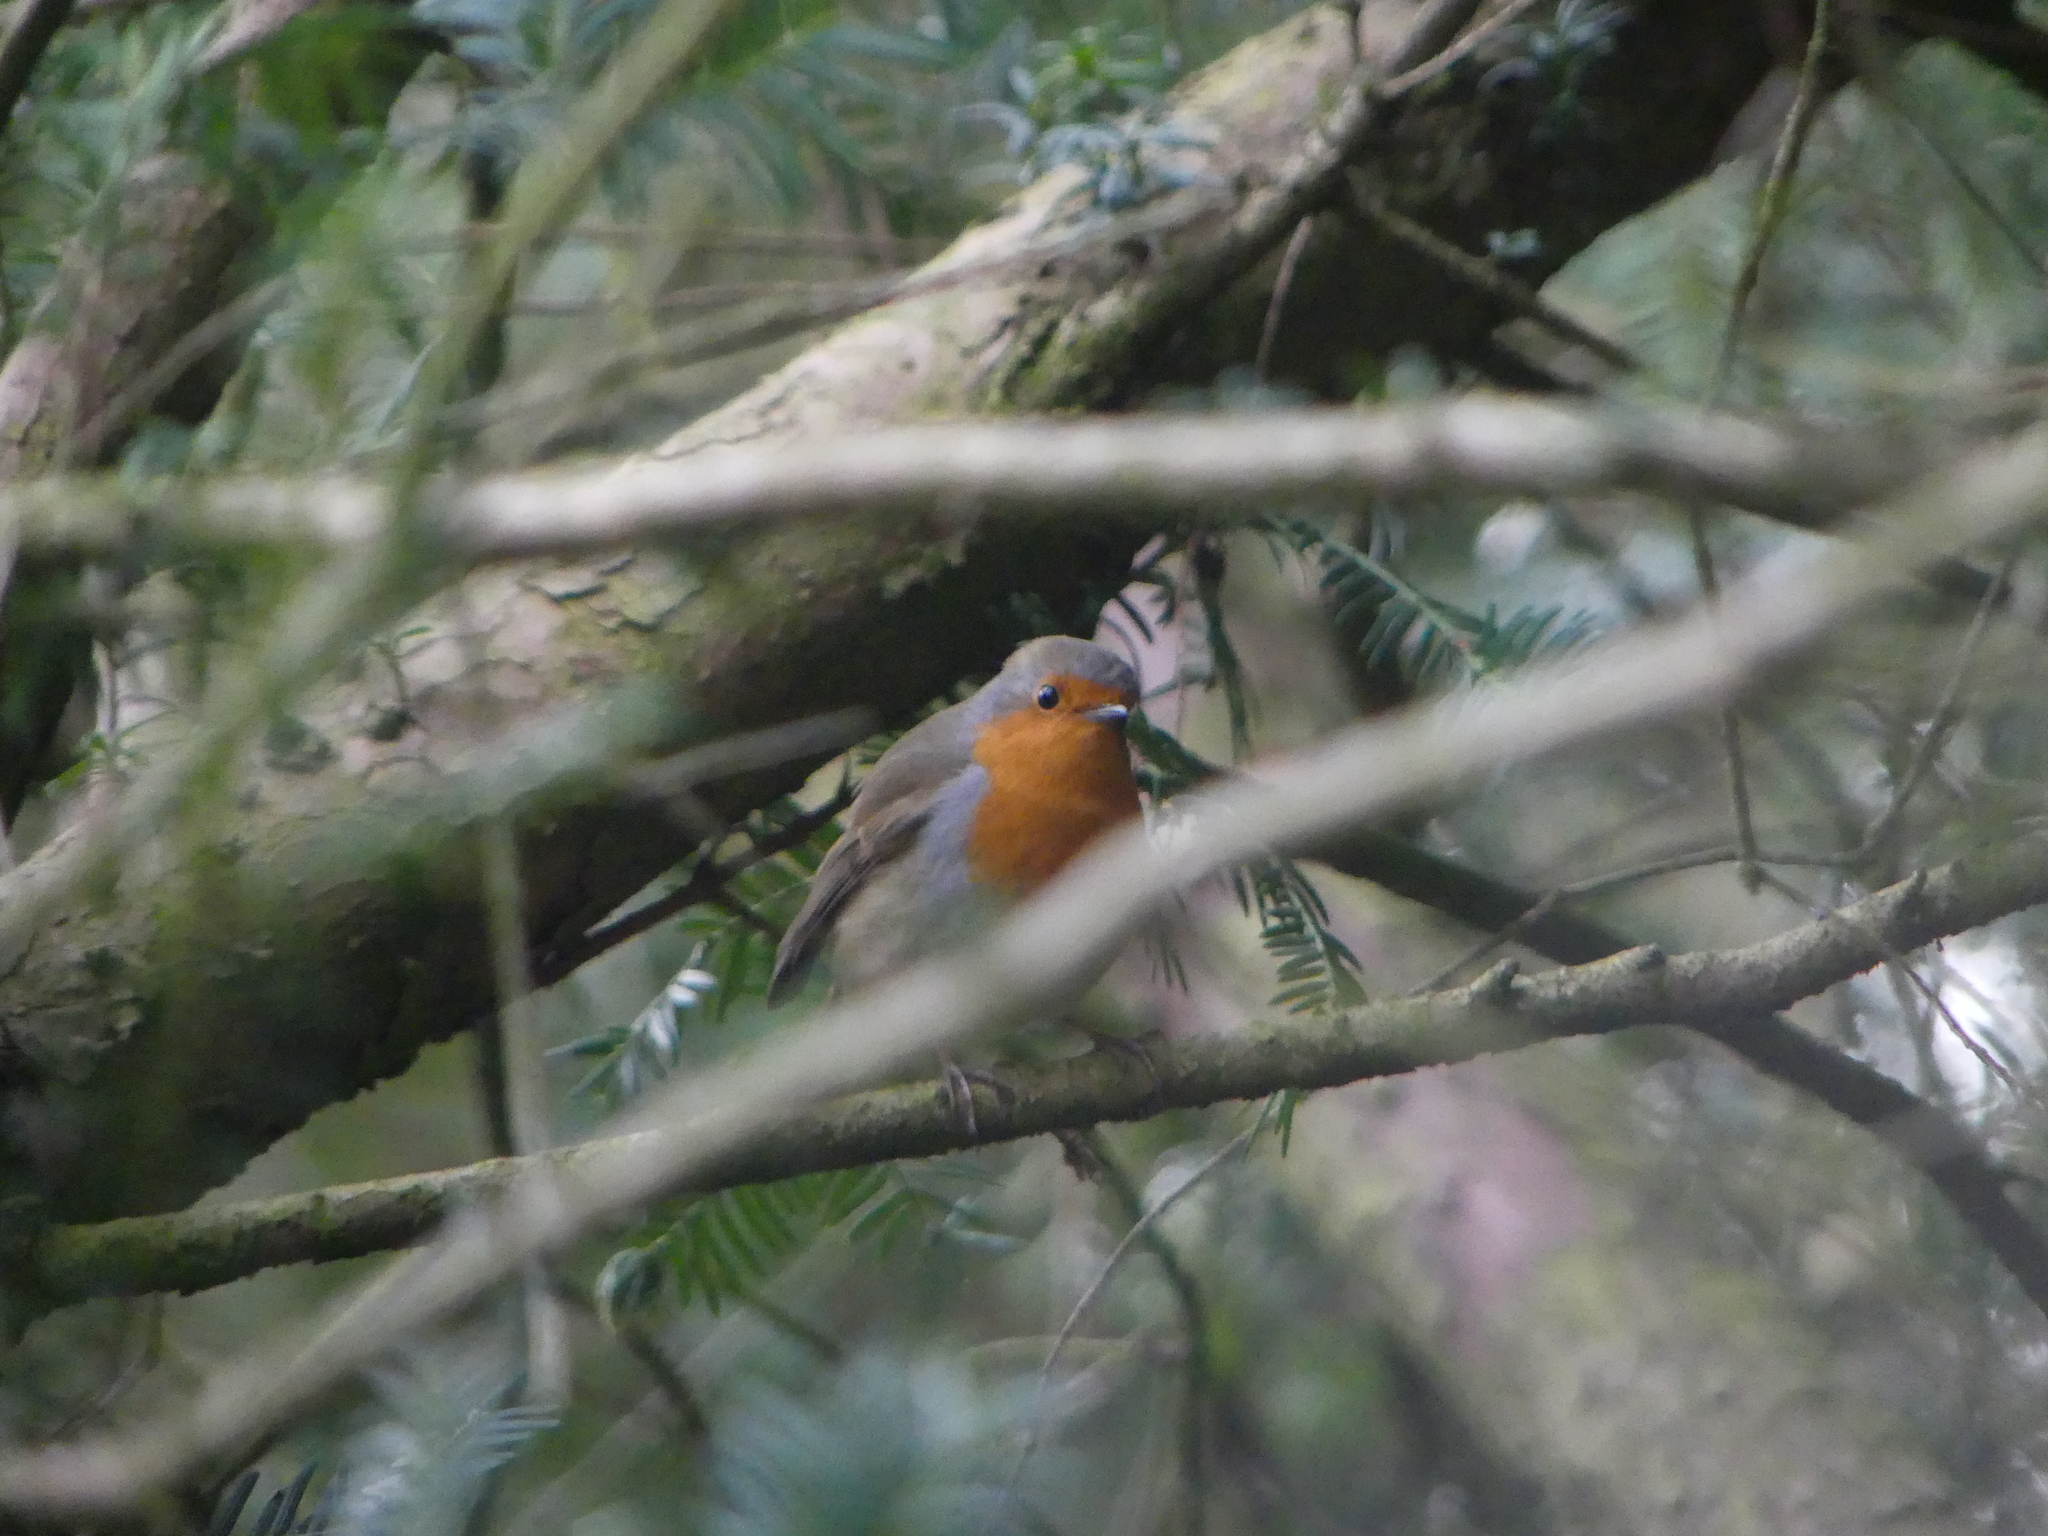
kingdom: Animalia
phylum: Chordata
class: Aves
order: Passeriformes
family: Muscicapidae
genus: Erithacus
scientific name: Erithacus rubecula
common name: European robin
